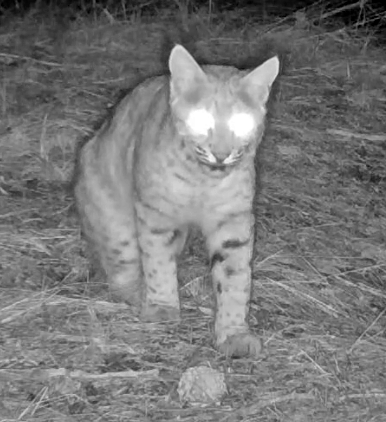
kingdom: Animalia
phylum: Chordata
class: Mammalia
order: Carnivora
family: Felidae
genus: Lynx
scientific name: Lynx rufus
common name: Bobcat
